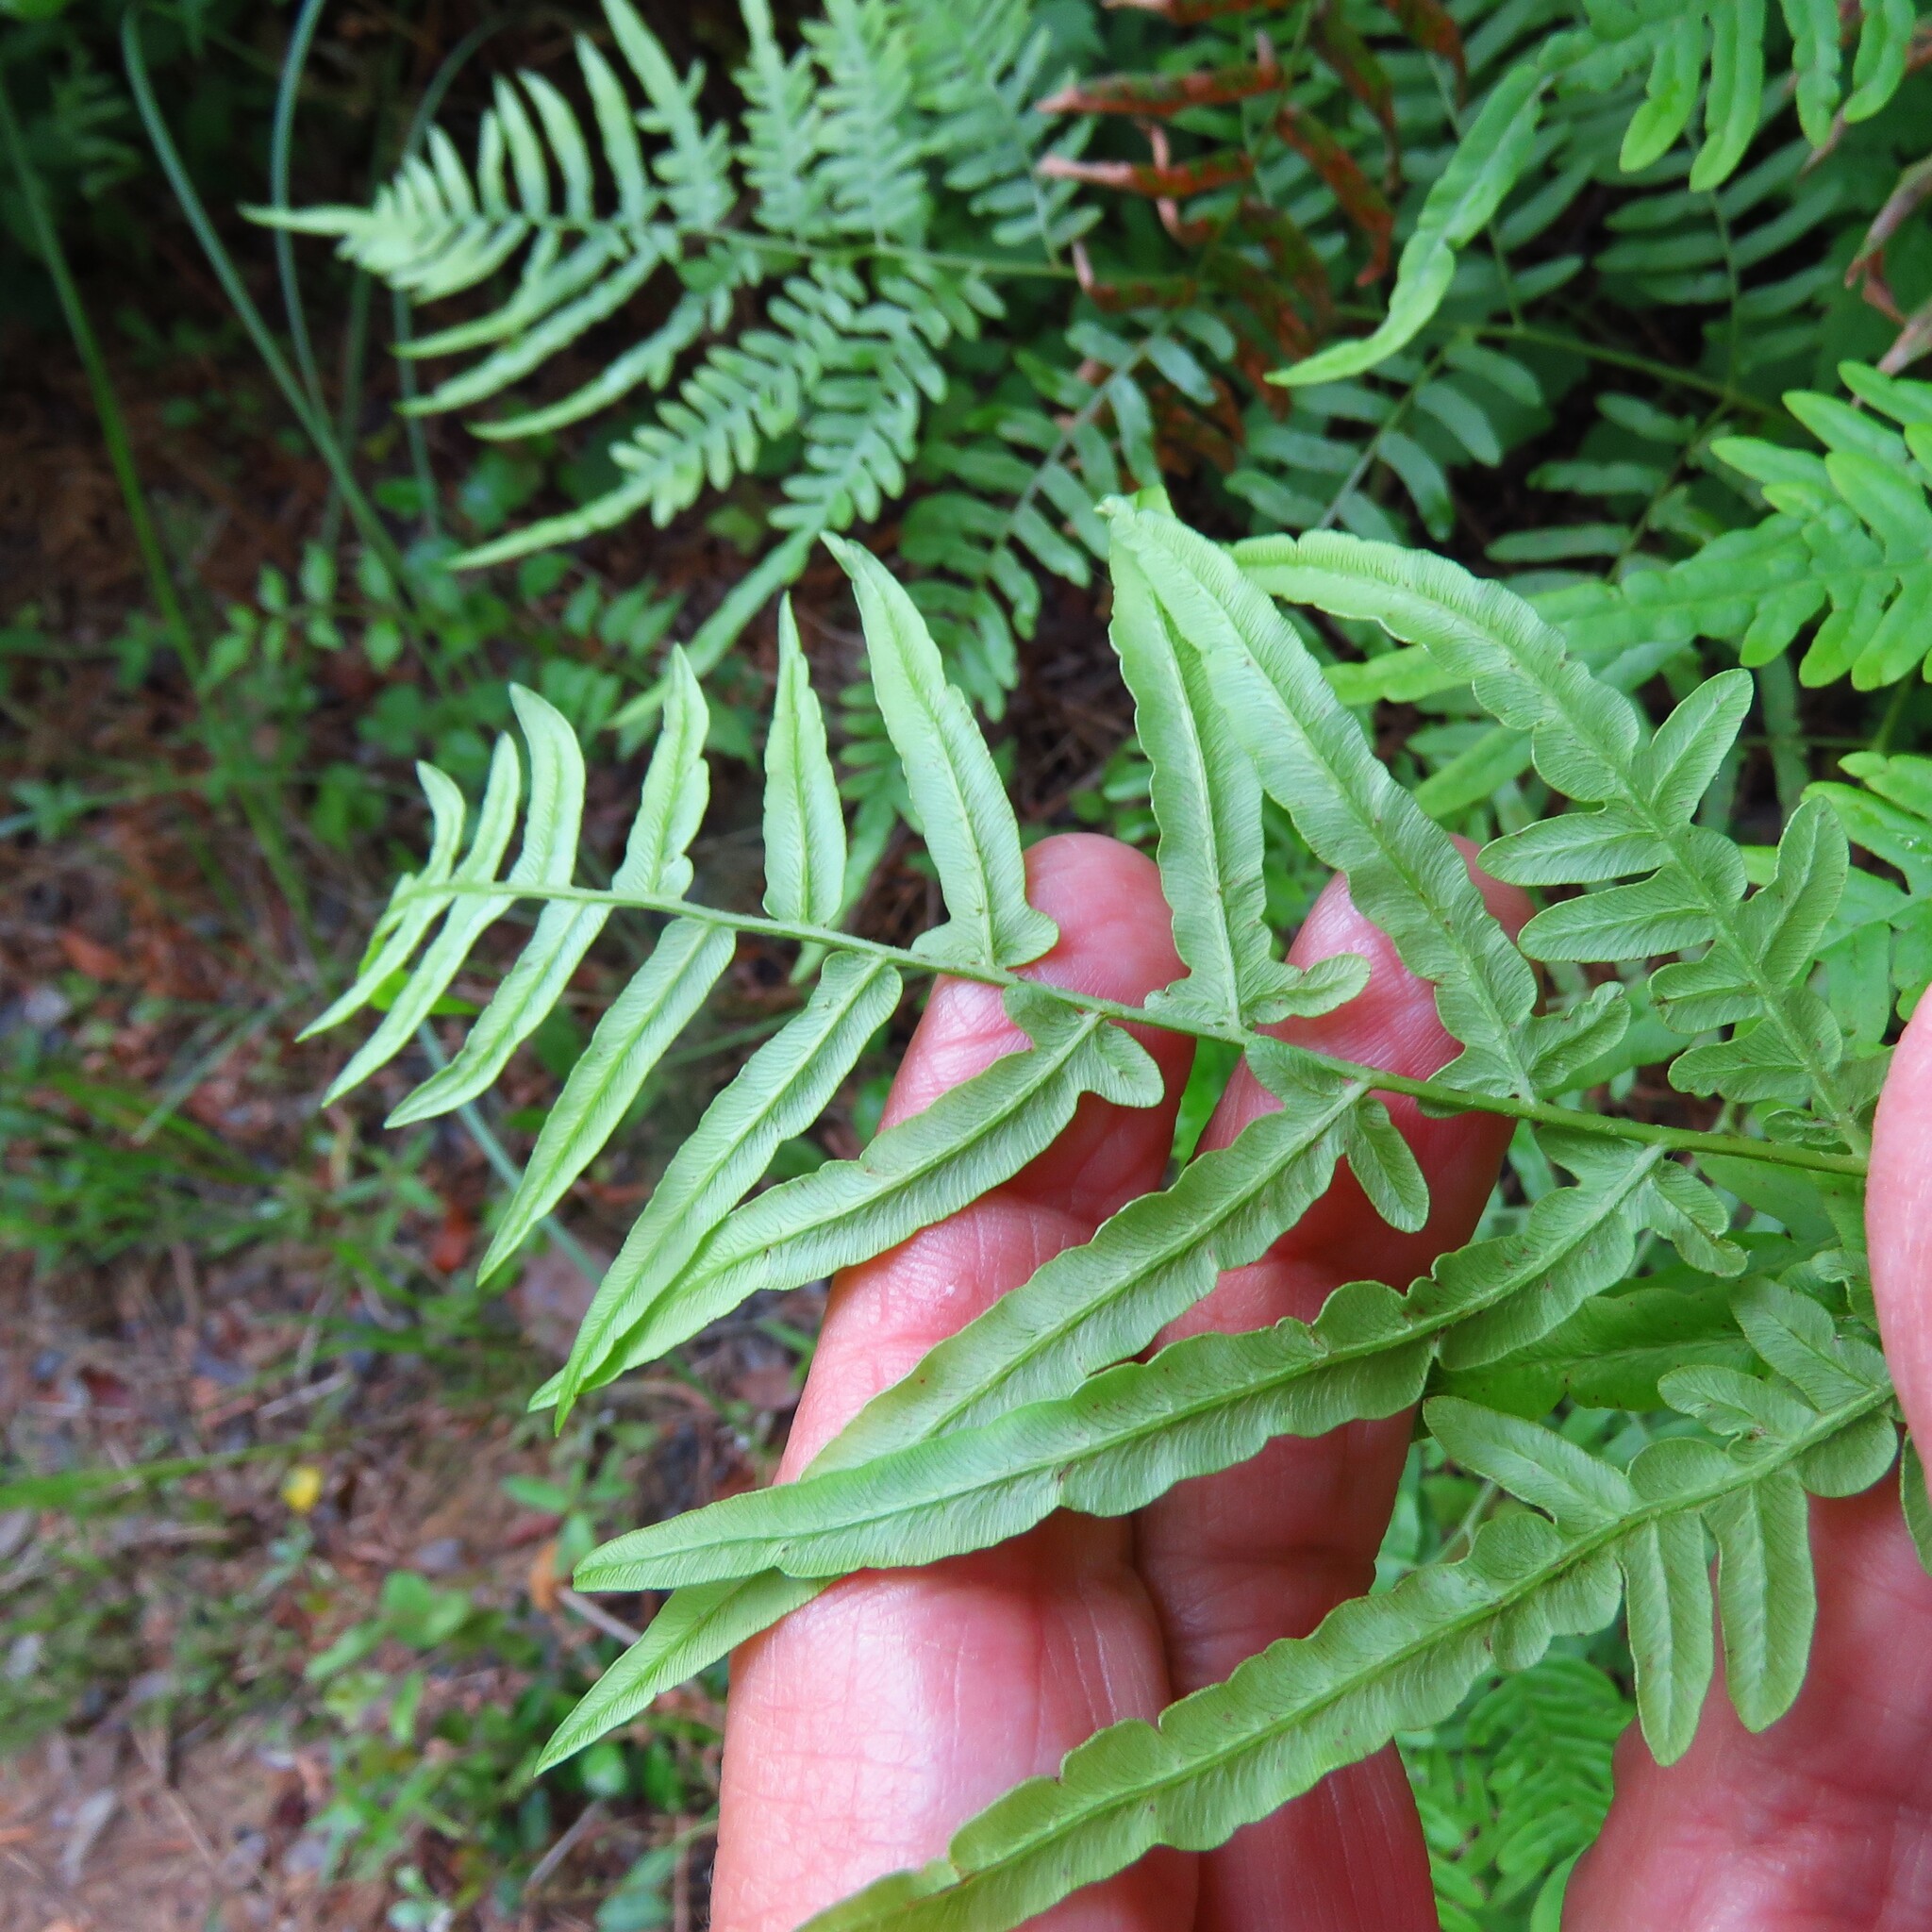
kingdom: Plantae
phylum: Tracheophyta
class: Polypodiopsida
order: Polypodiales
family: Dennstaedtiaceae
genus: Pteridium
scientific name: Pteridium aquilinum
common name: Bracken
